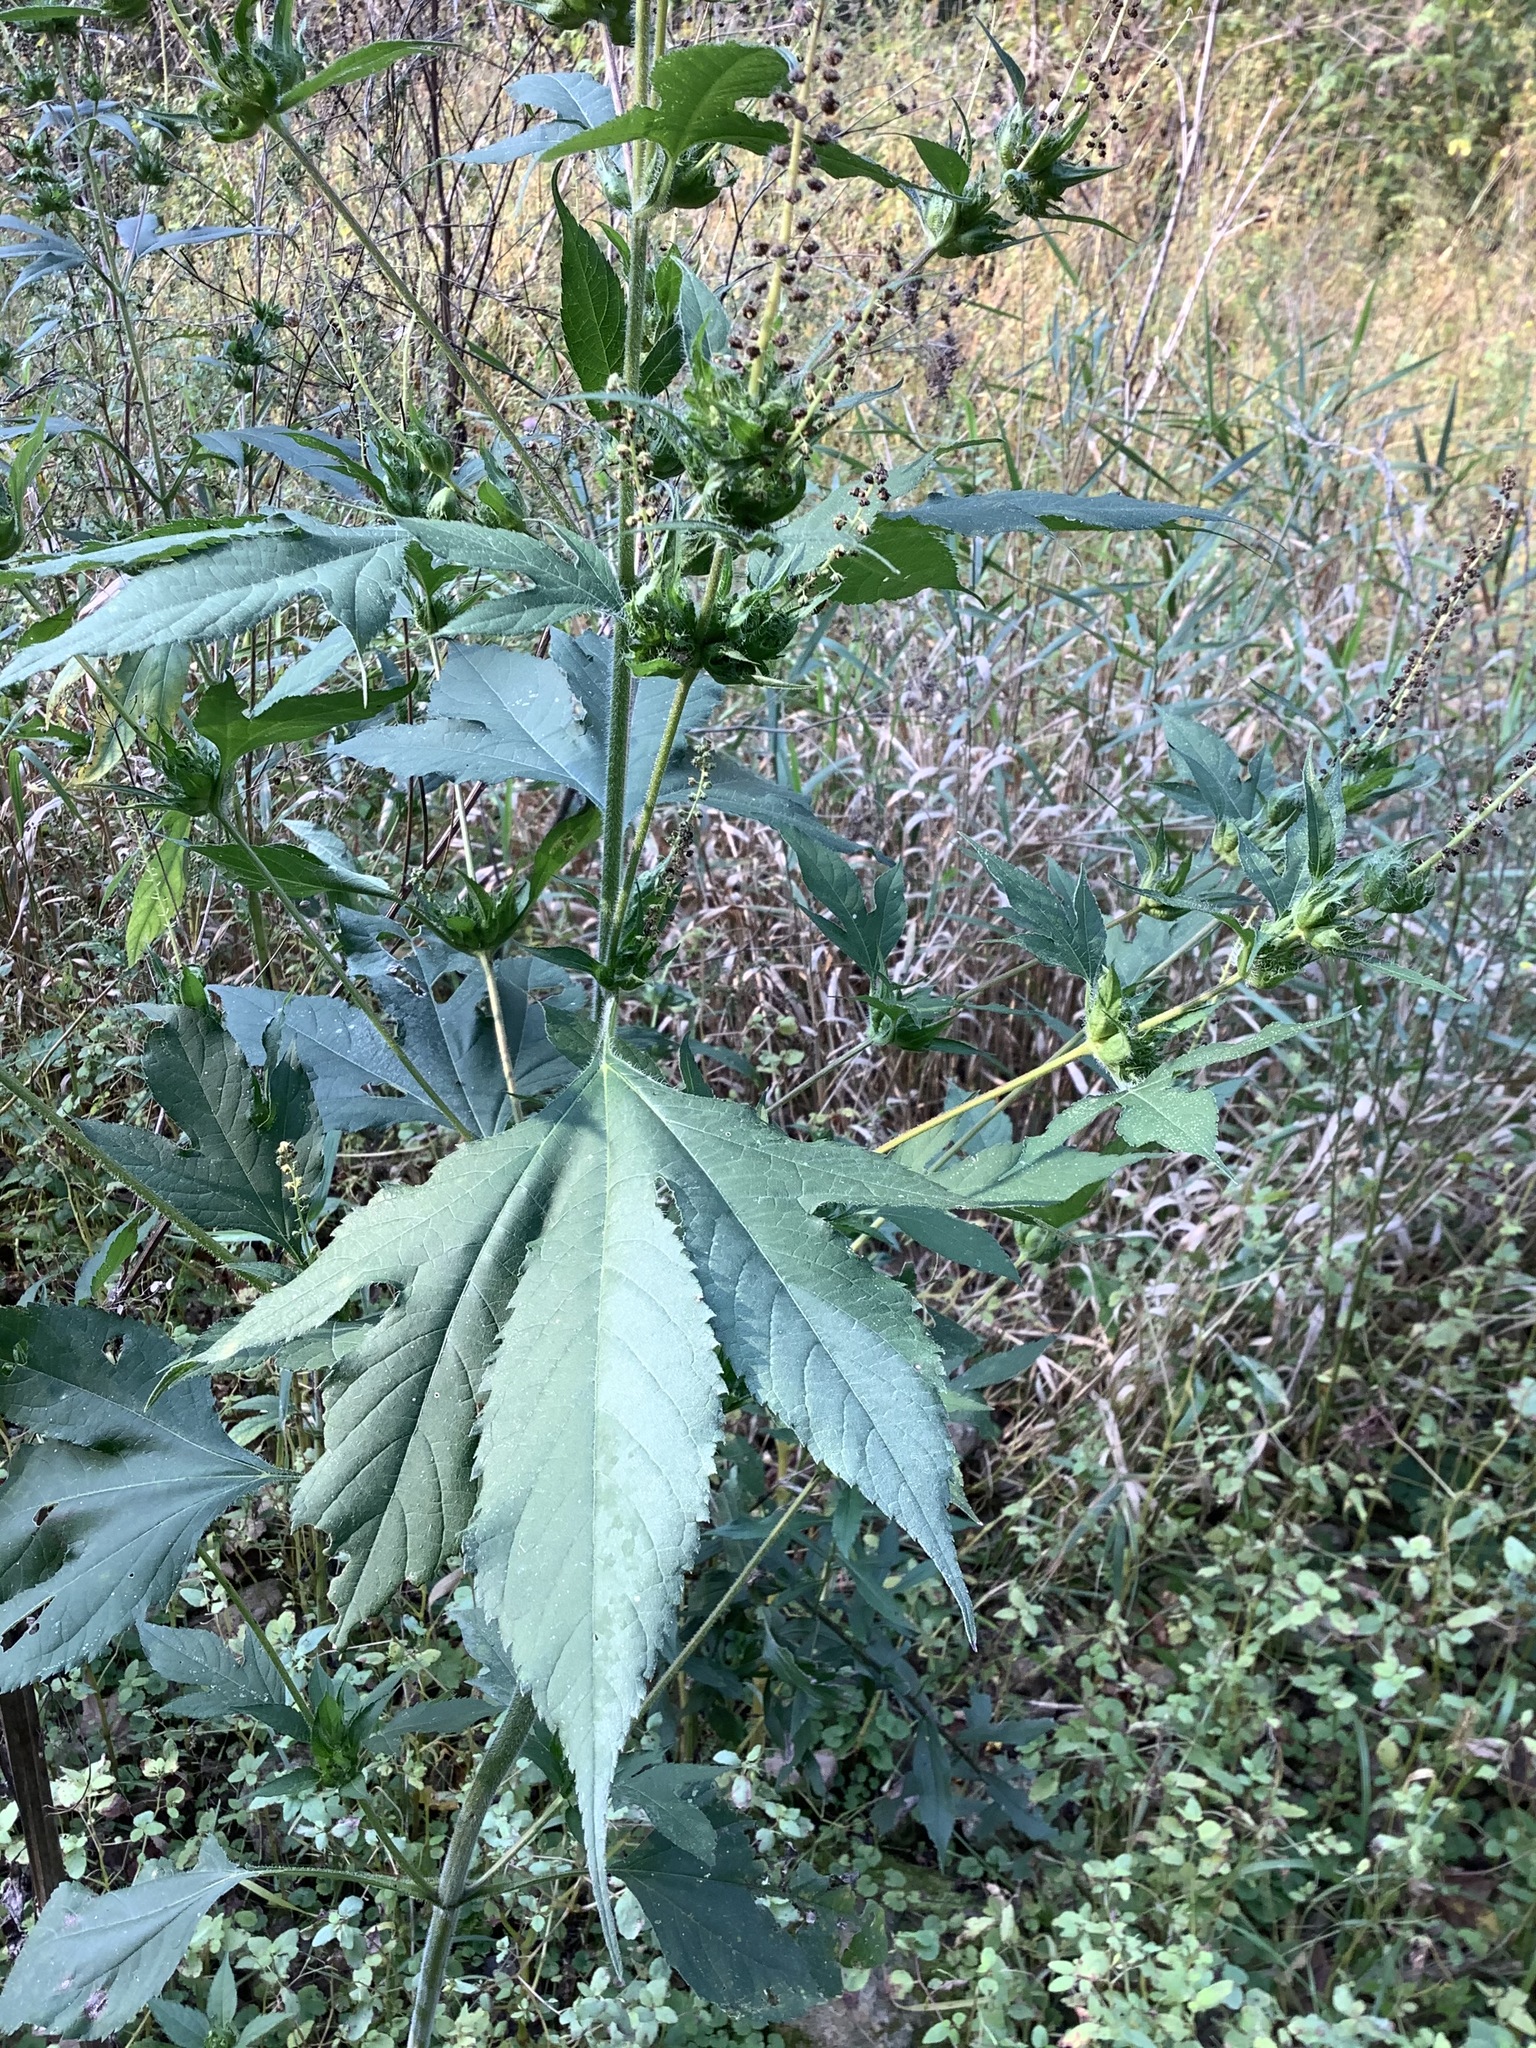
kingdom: Plantae
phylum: Tracheophyta
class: Magnoliopsida
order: Asterales
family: Asteraceae
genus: Ambrosia
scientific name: Ambrosia trifida
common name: Giant ragweed
